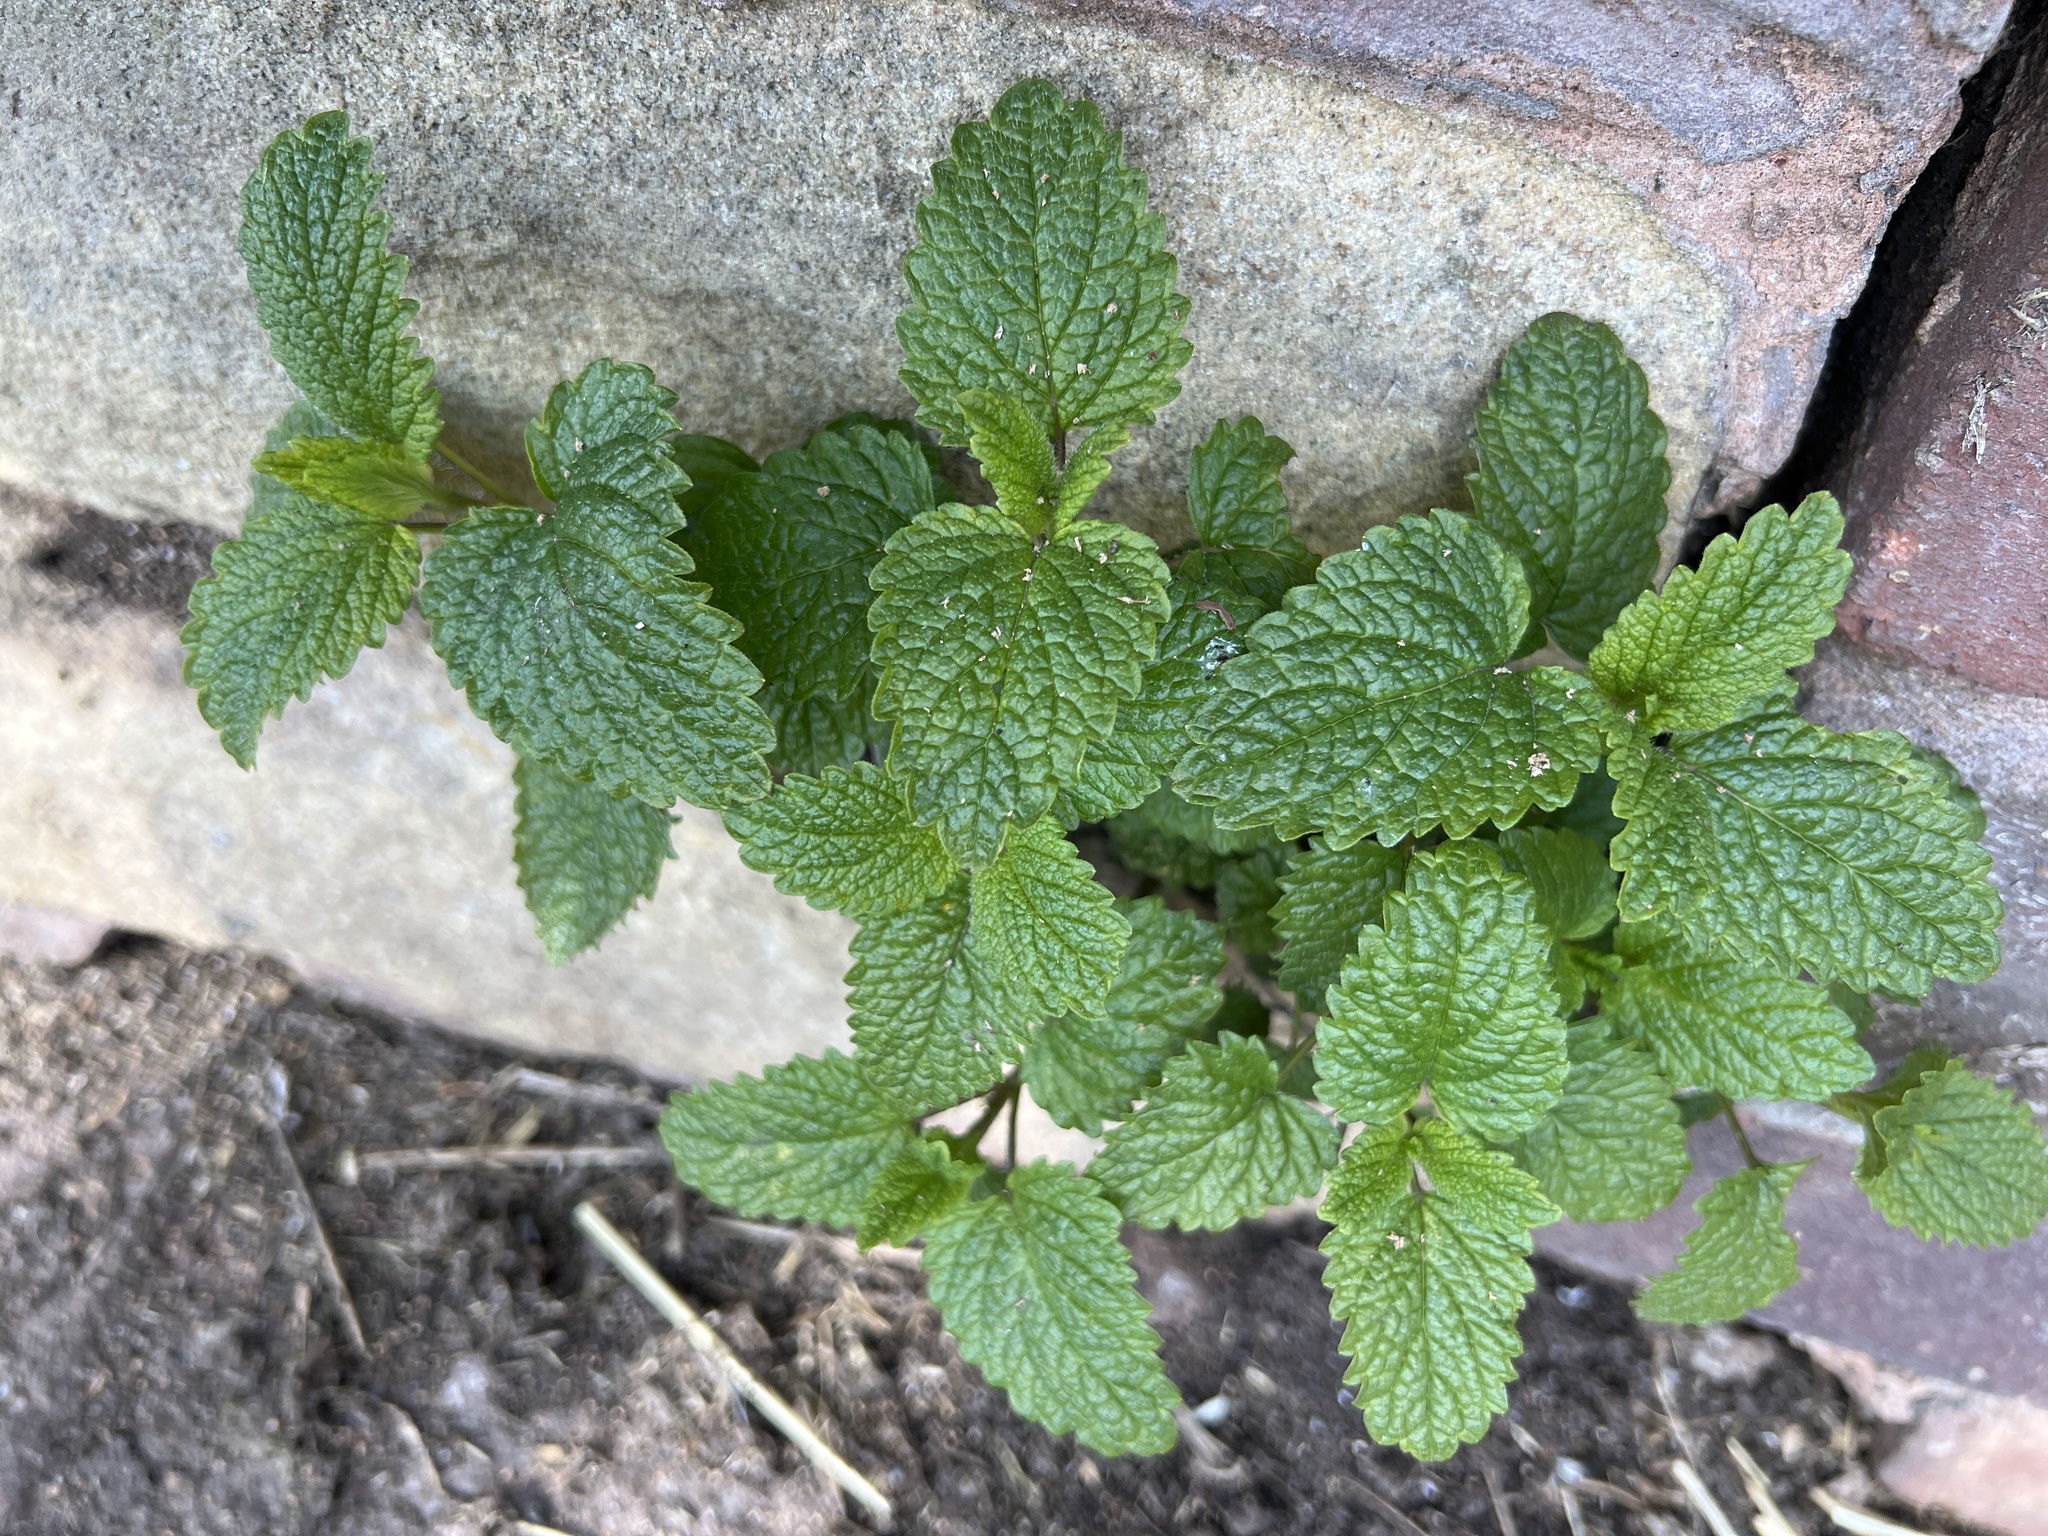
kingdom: Plantae
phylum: Tracheophyta
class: Magnoliopsida
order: Lamiales
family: Lamiaceae
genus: Melissa
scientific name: Melissa officinalis
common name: Balm
